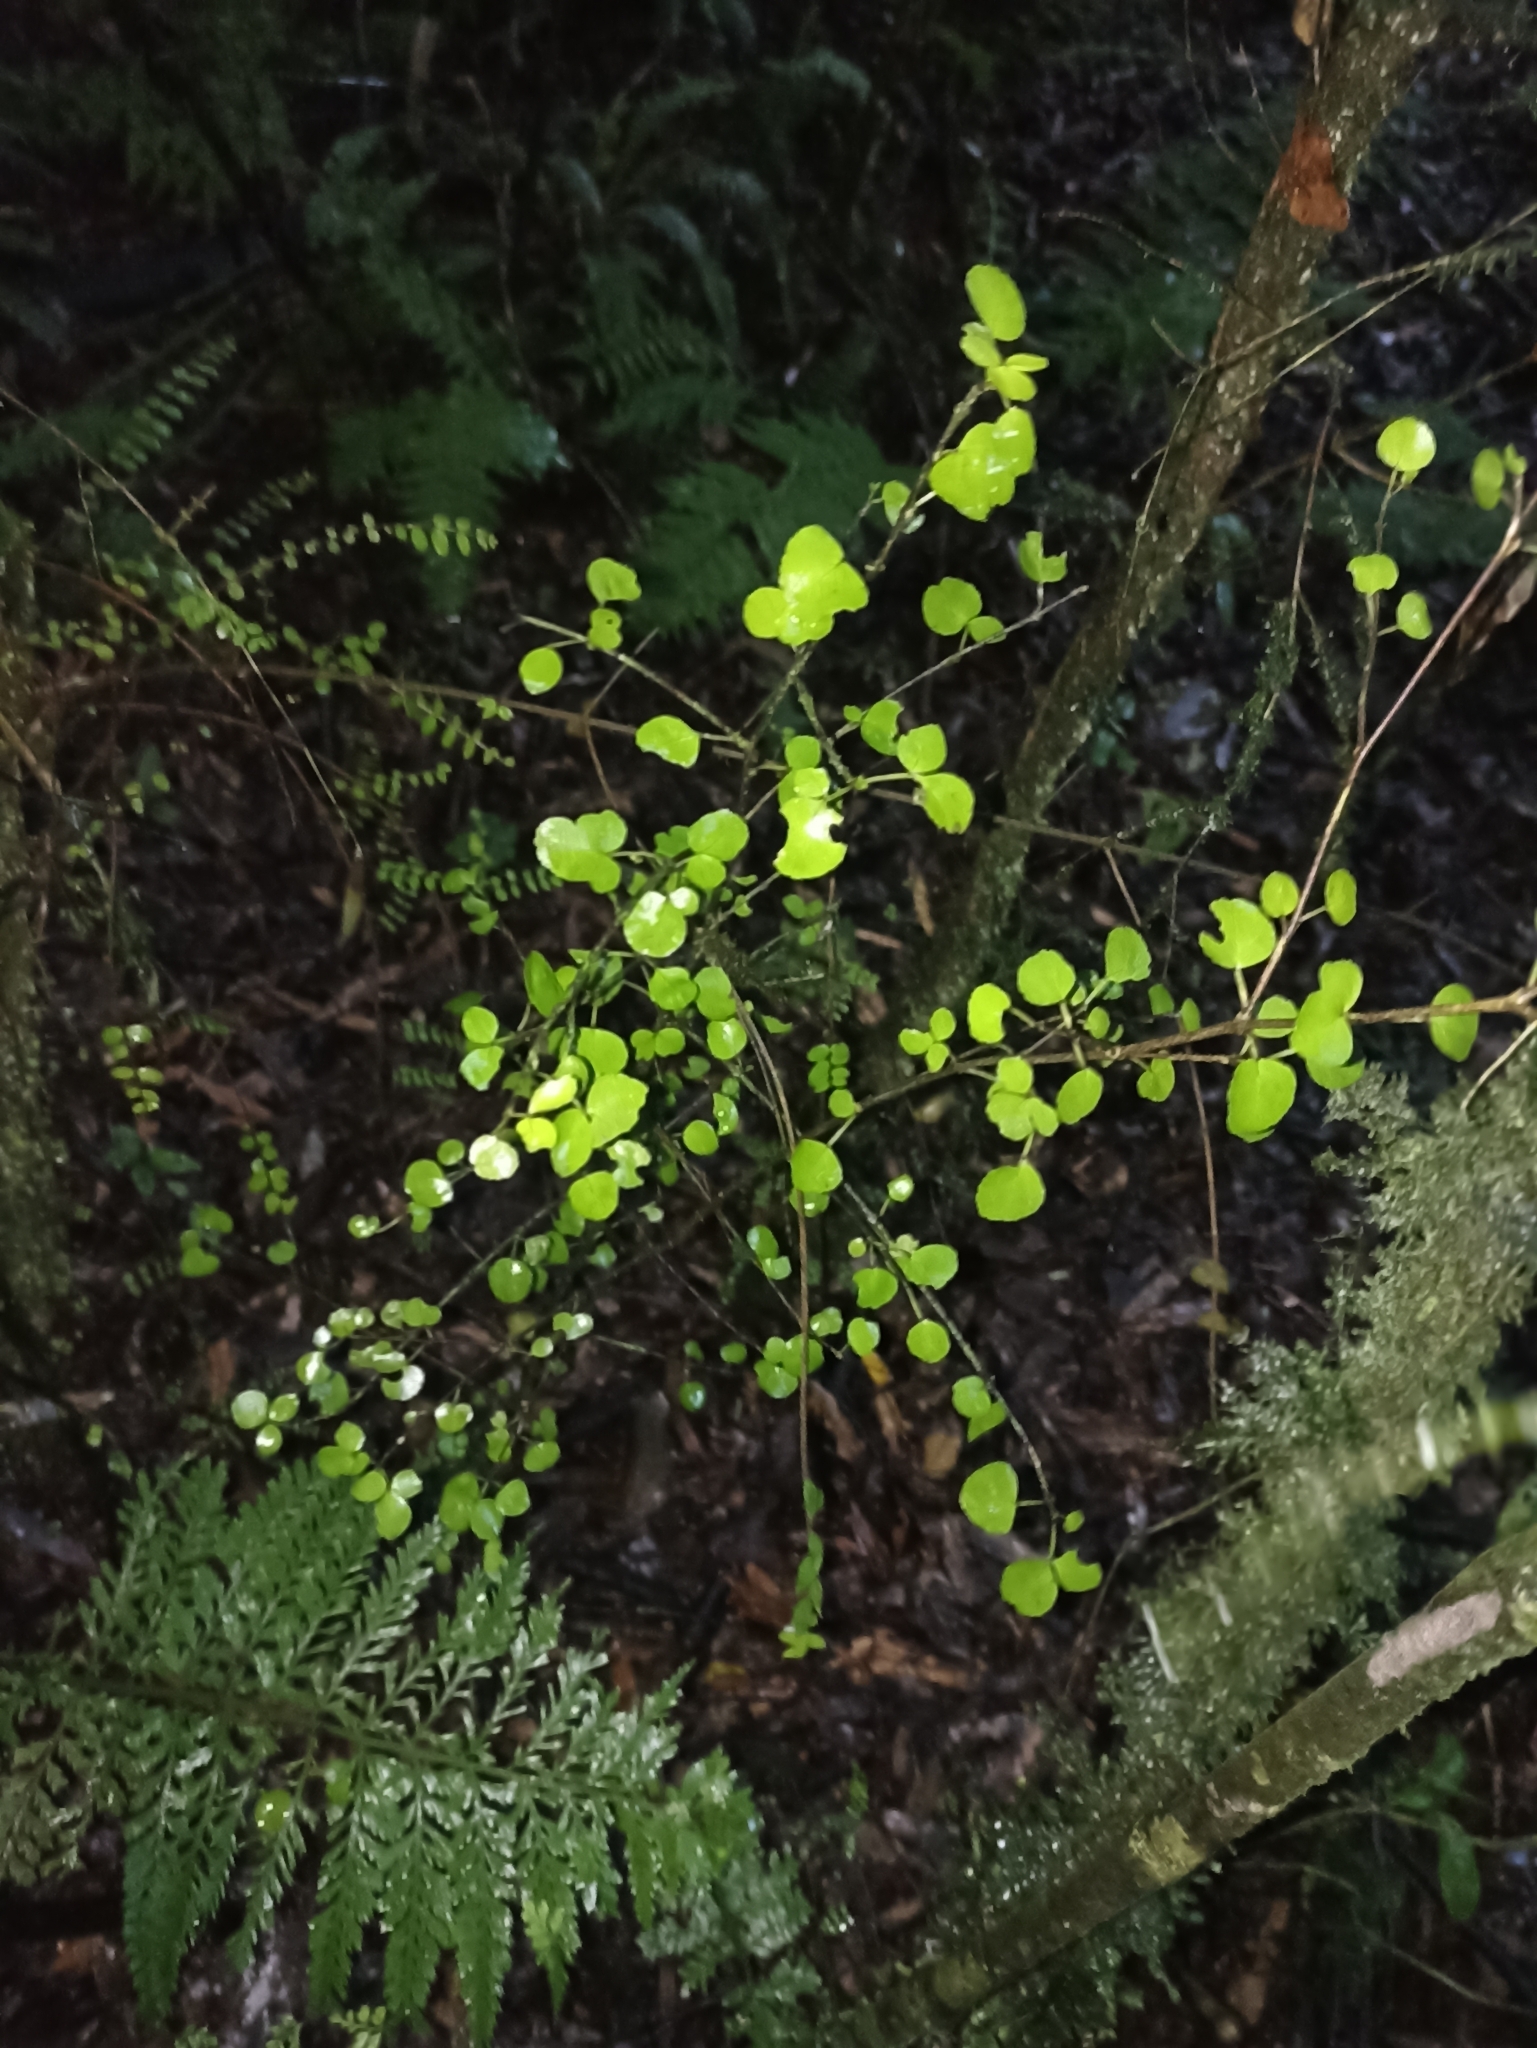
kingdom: Plantae
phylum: Tracheophyta
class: Magnoliopsida
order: Sapindales
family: Rutaceae
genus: Melicope
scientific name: Melicope simplex
